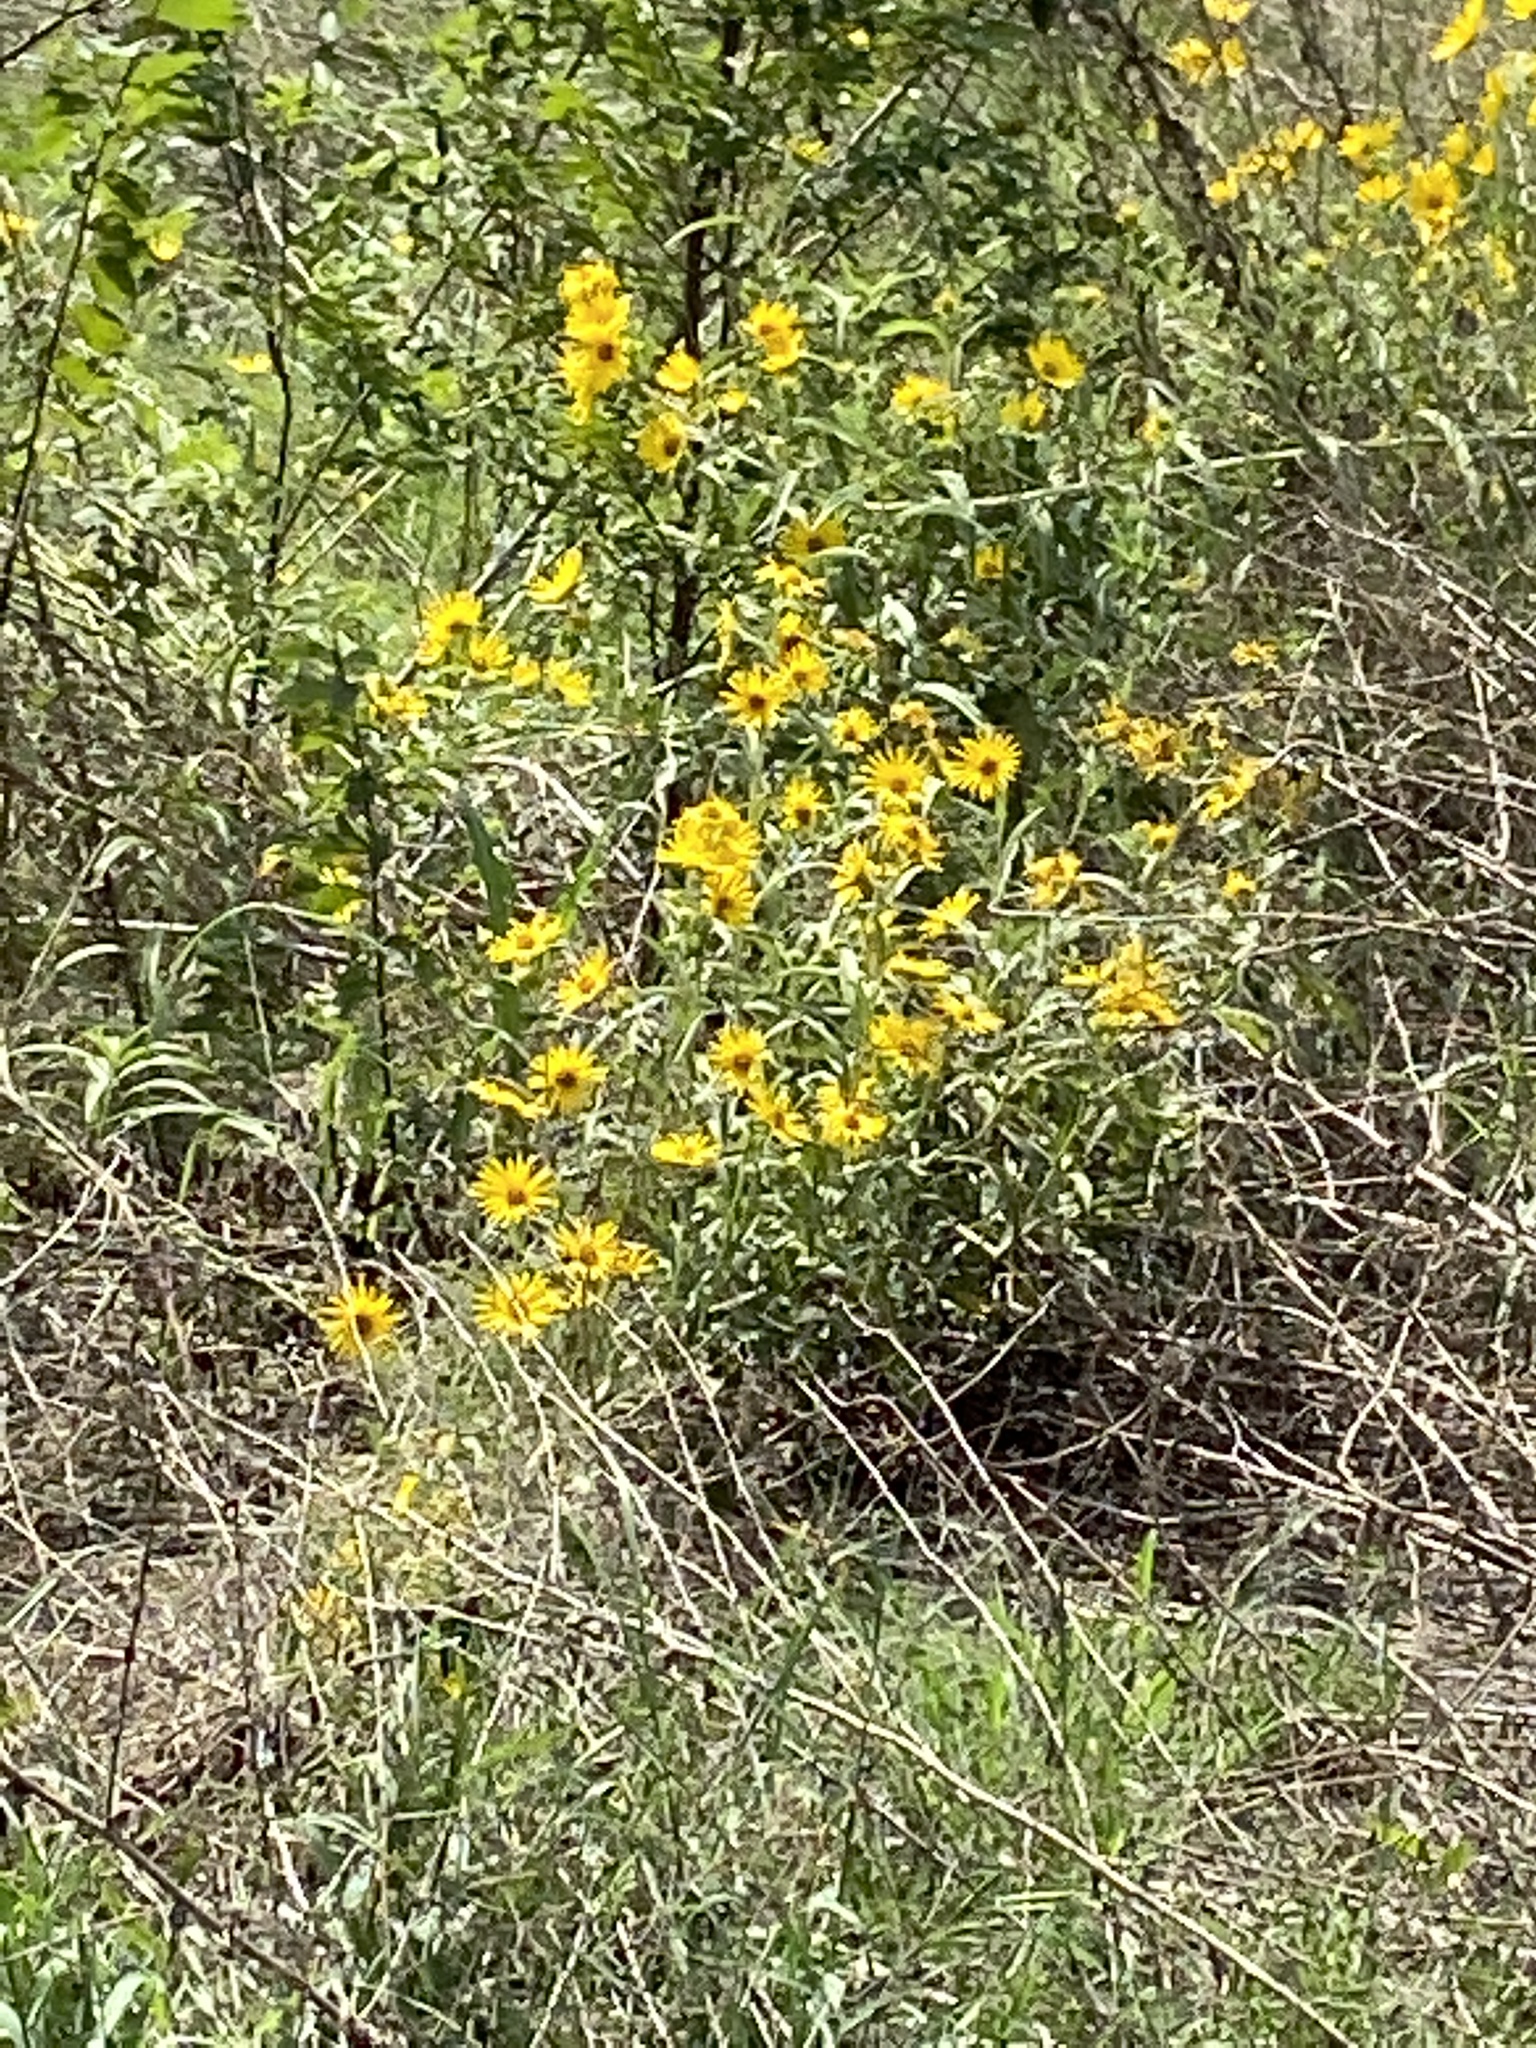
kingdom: Plantae
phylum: Tracheophyta
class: Magnoliopsida
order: Asterales
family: Asteraceae
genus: Helianthus
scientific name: Helianthus maximiliani
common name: Maximilian's sunflower
